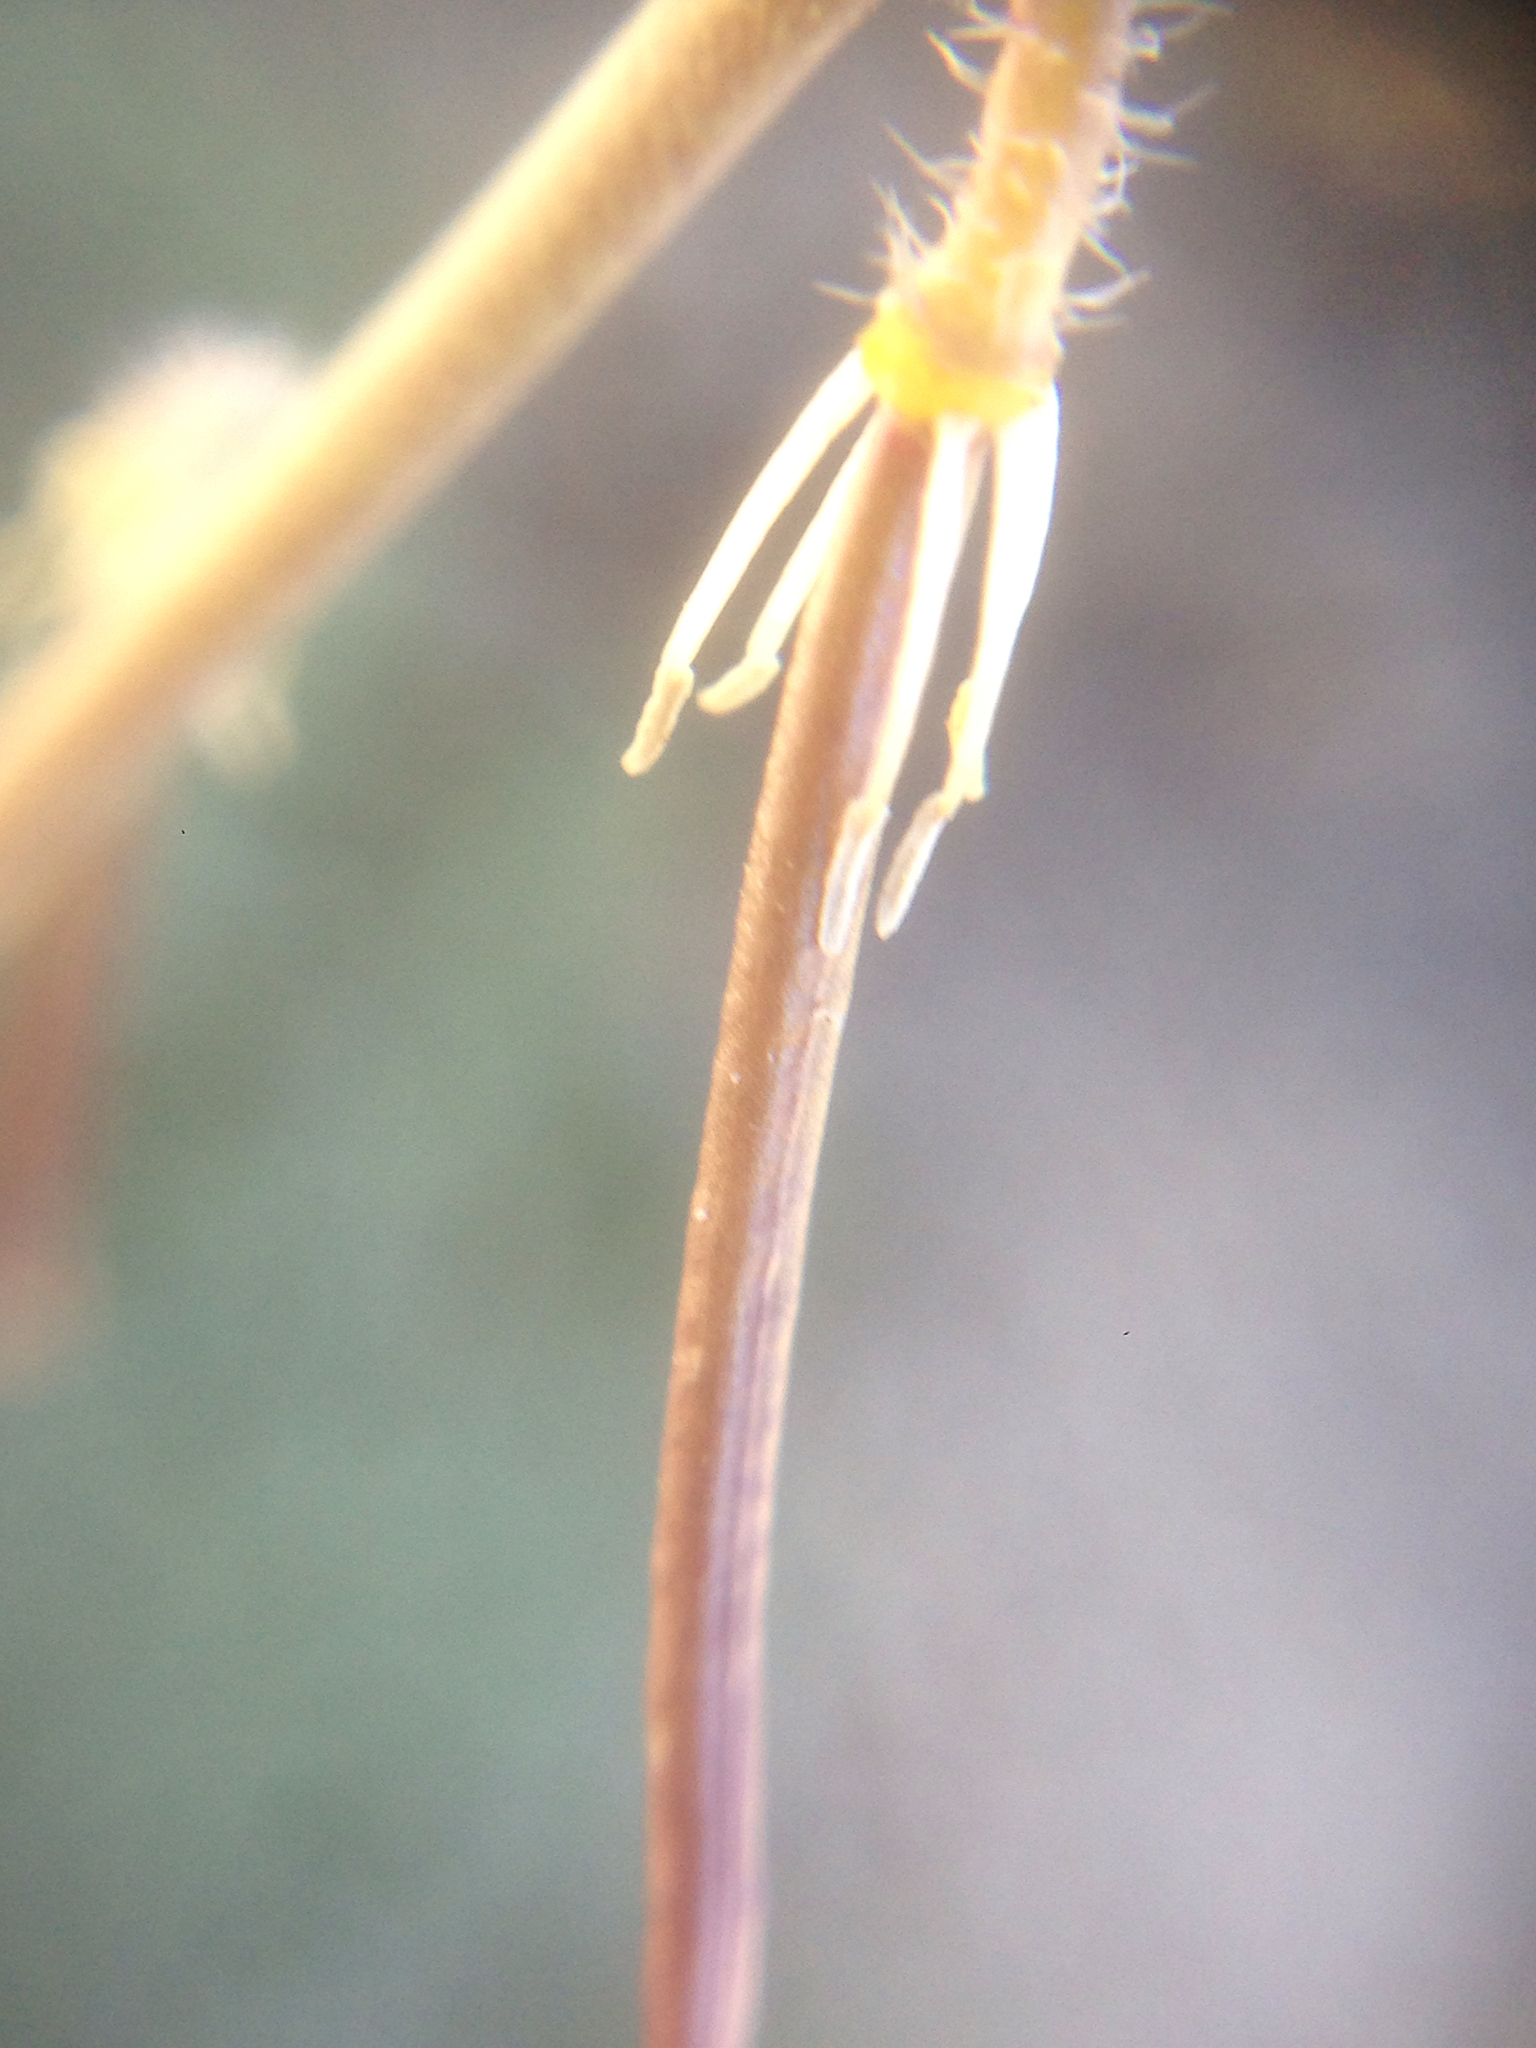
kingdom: Plantae
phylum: Tracheophyta
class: Magnoliopsida
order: Brassicales
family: Brassicaceae
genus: Streptanthus
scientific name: Streptanthus simulans
